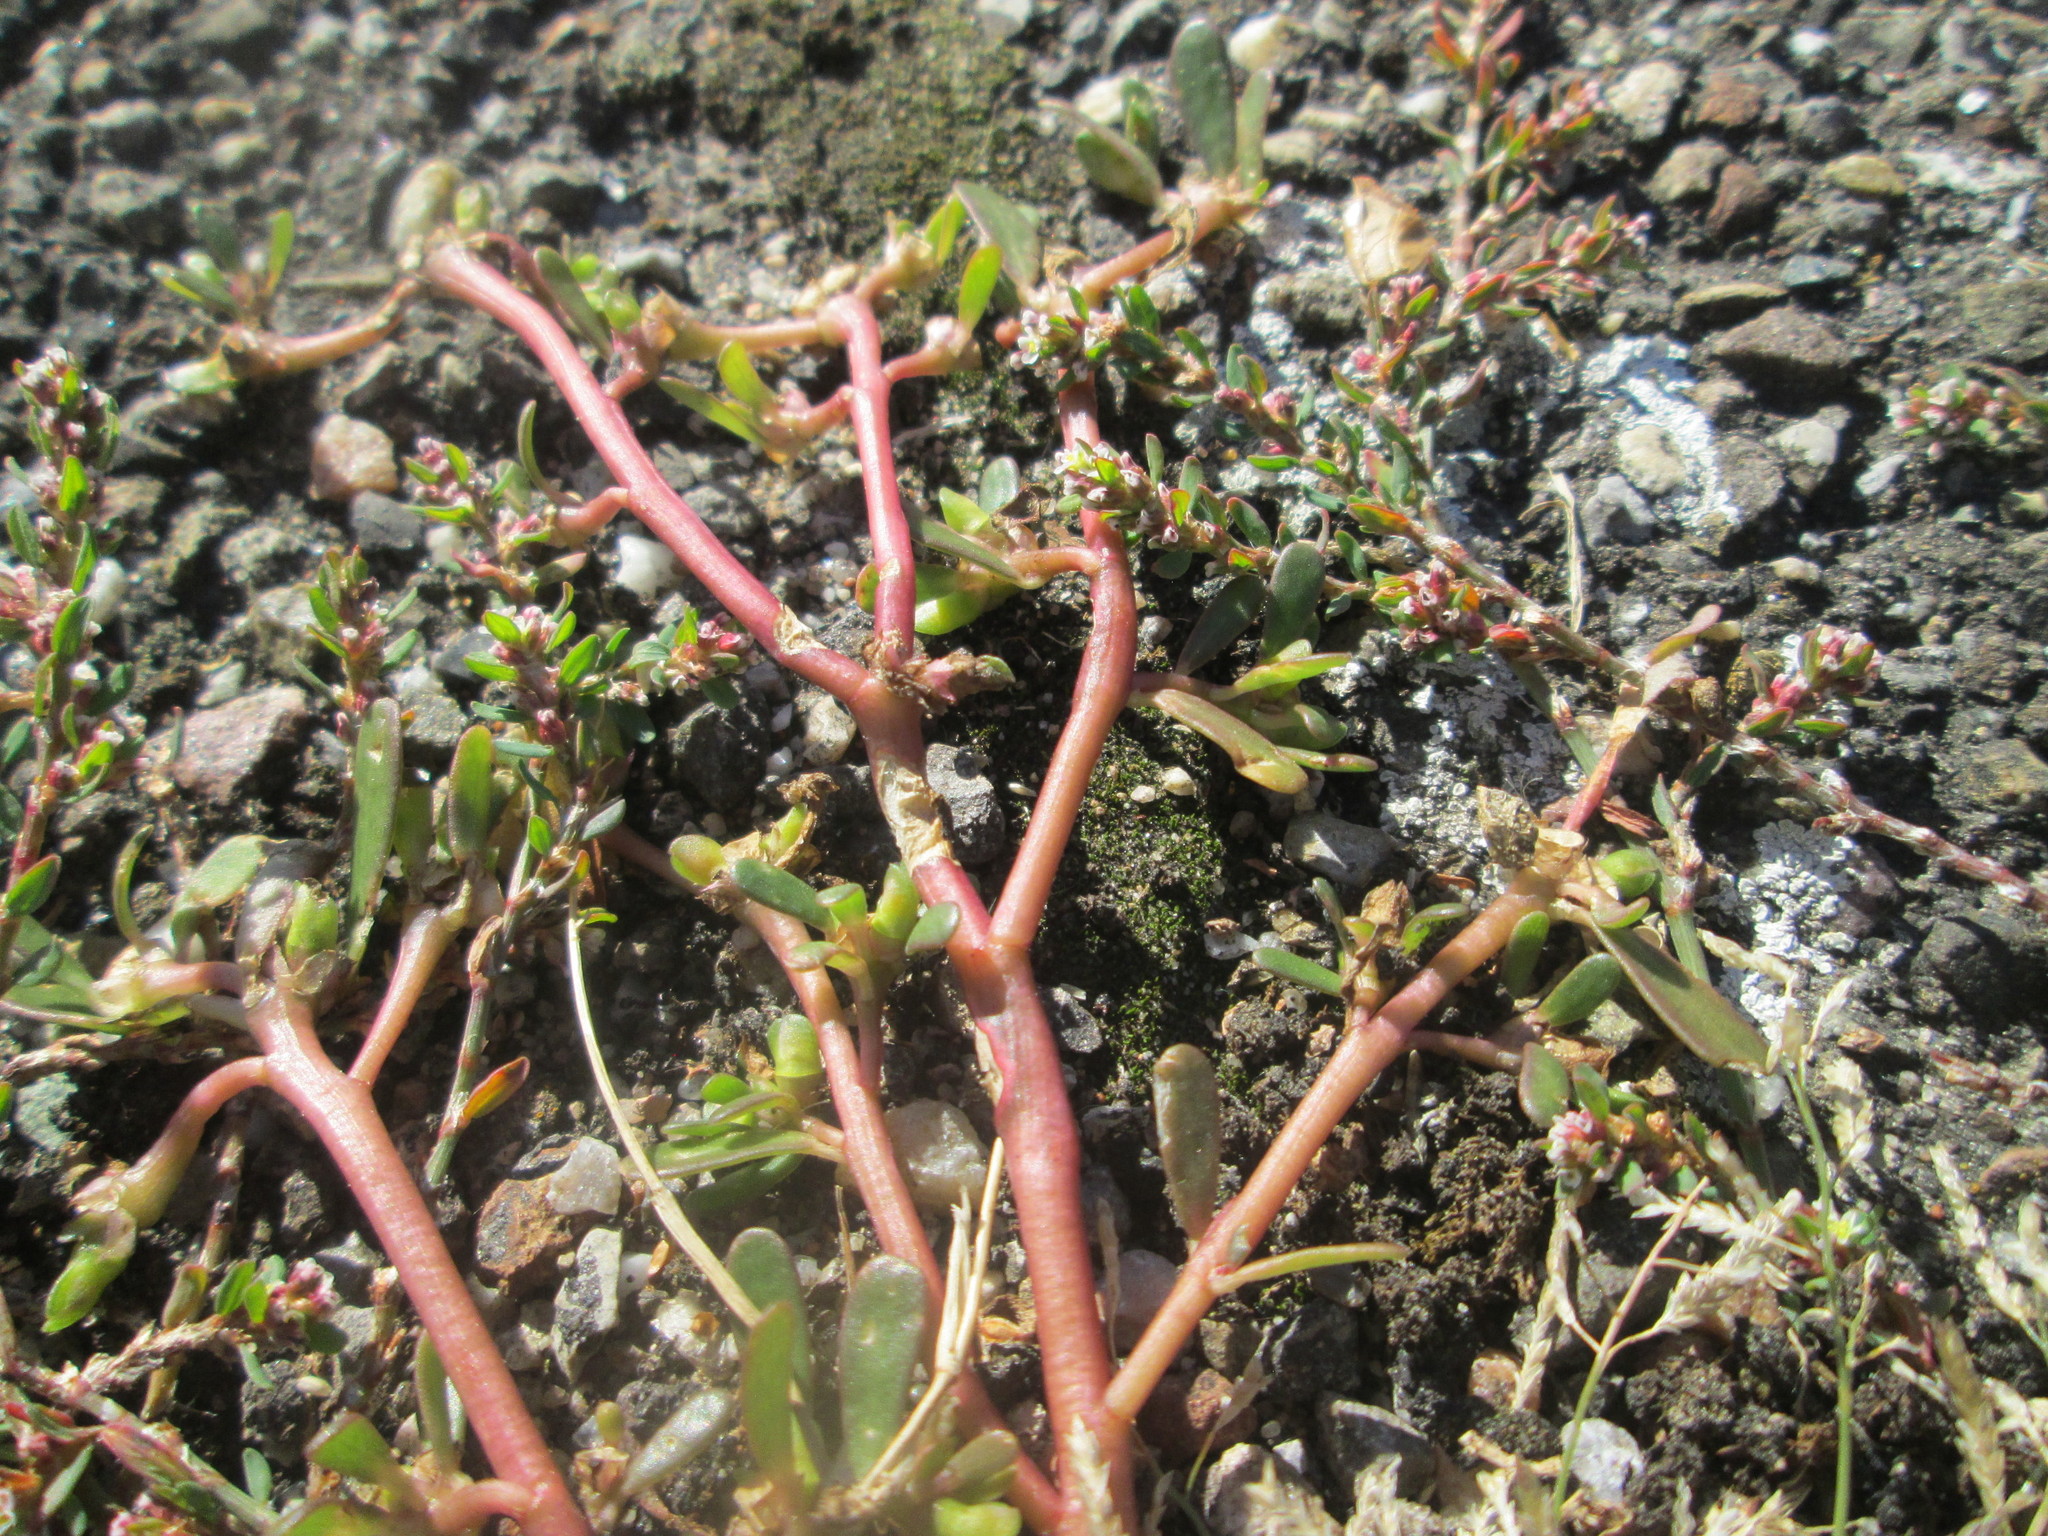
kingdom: Plantae
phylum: Tracheophyta
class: Magnoliopsida
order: Caryophyllales
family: Portulacaceae
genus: Portulaca
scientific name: Portulaca oleracea
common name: Common purslane
